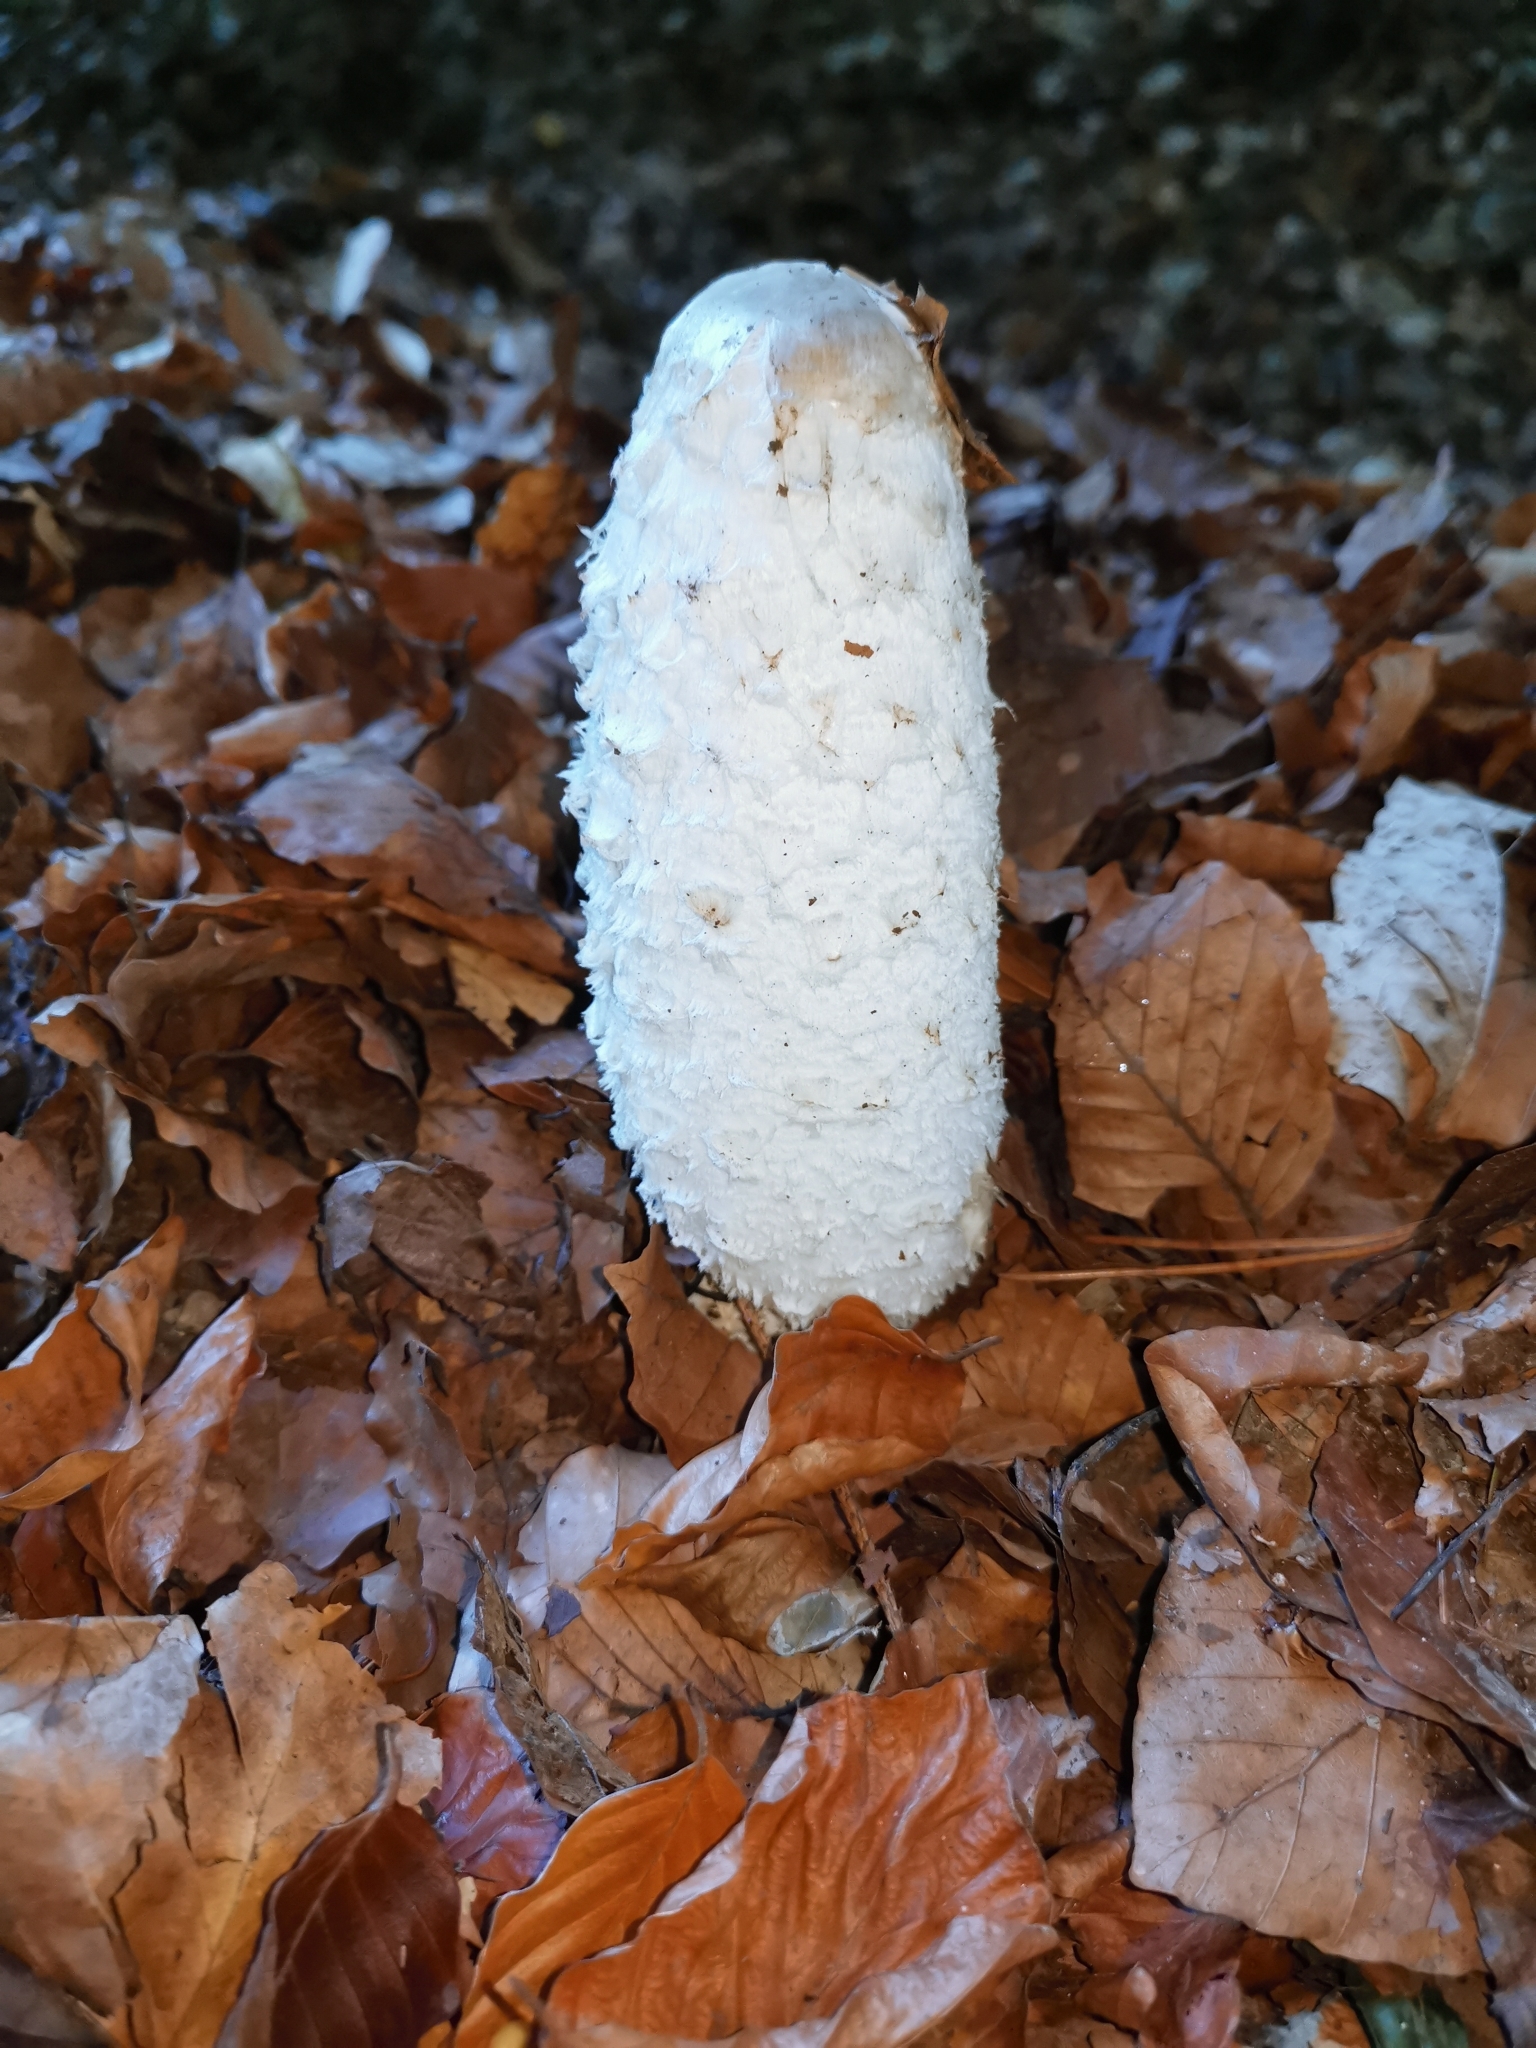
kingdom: Fungi
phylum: Basidiomycota
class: Agaricomycetes
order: Agaricales
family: Agaricaceae
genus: Coprinus
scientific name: Coprinus comatus
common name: Lawyer's wig
